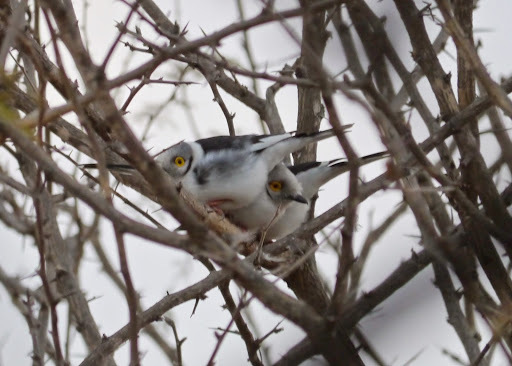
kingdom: Animalia
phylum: Chordata
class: Aves
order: Passeriformes
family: Prionopidae
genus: Prionops
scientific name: Prionops plumatus
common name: White-crested helmetshrike
